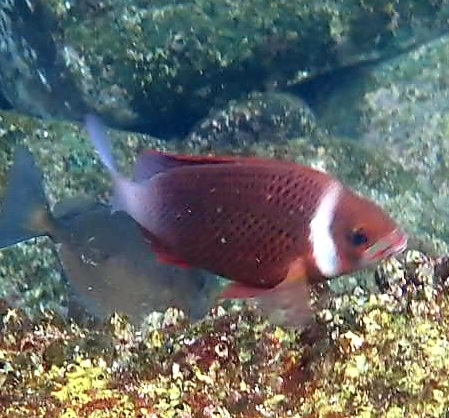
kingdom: Animalia
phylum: Chordata
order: Perciformes
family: Nemipteridae
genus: Scolopsis
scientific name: Scolopsis vosmeri
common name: Whitecheek monocle bream
